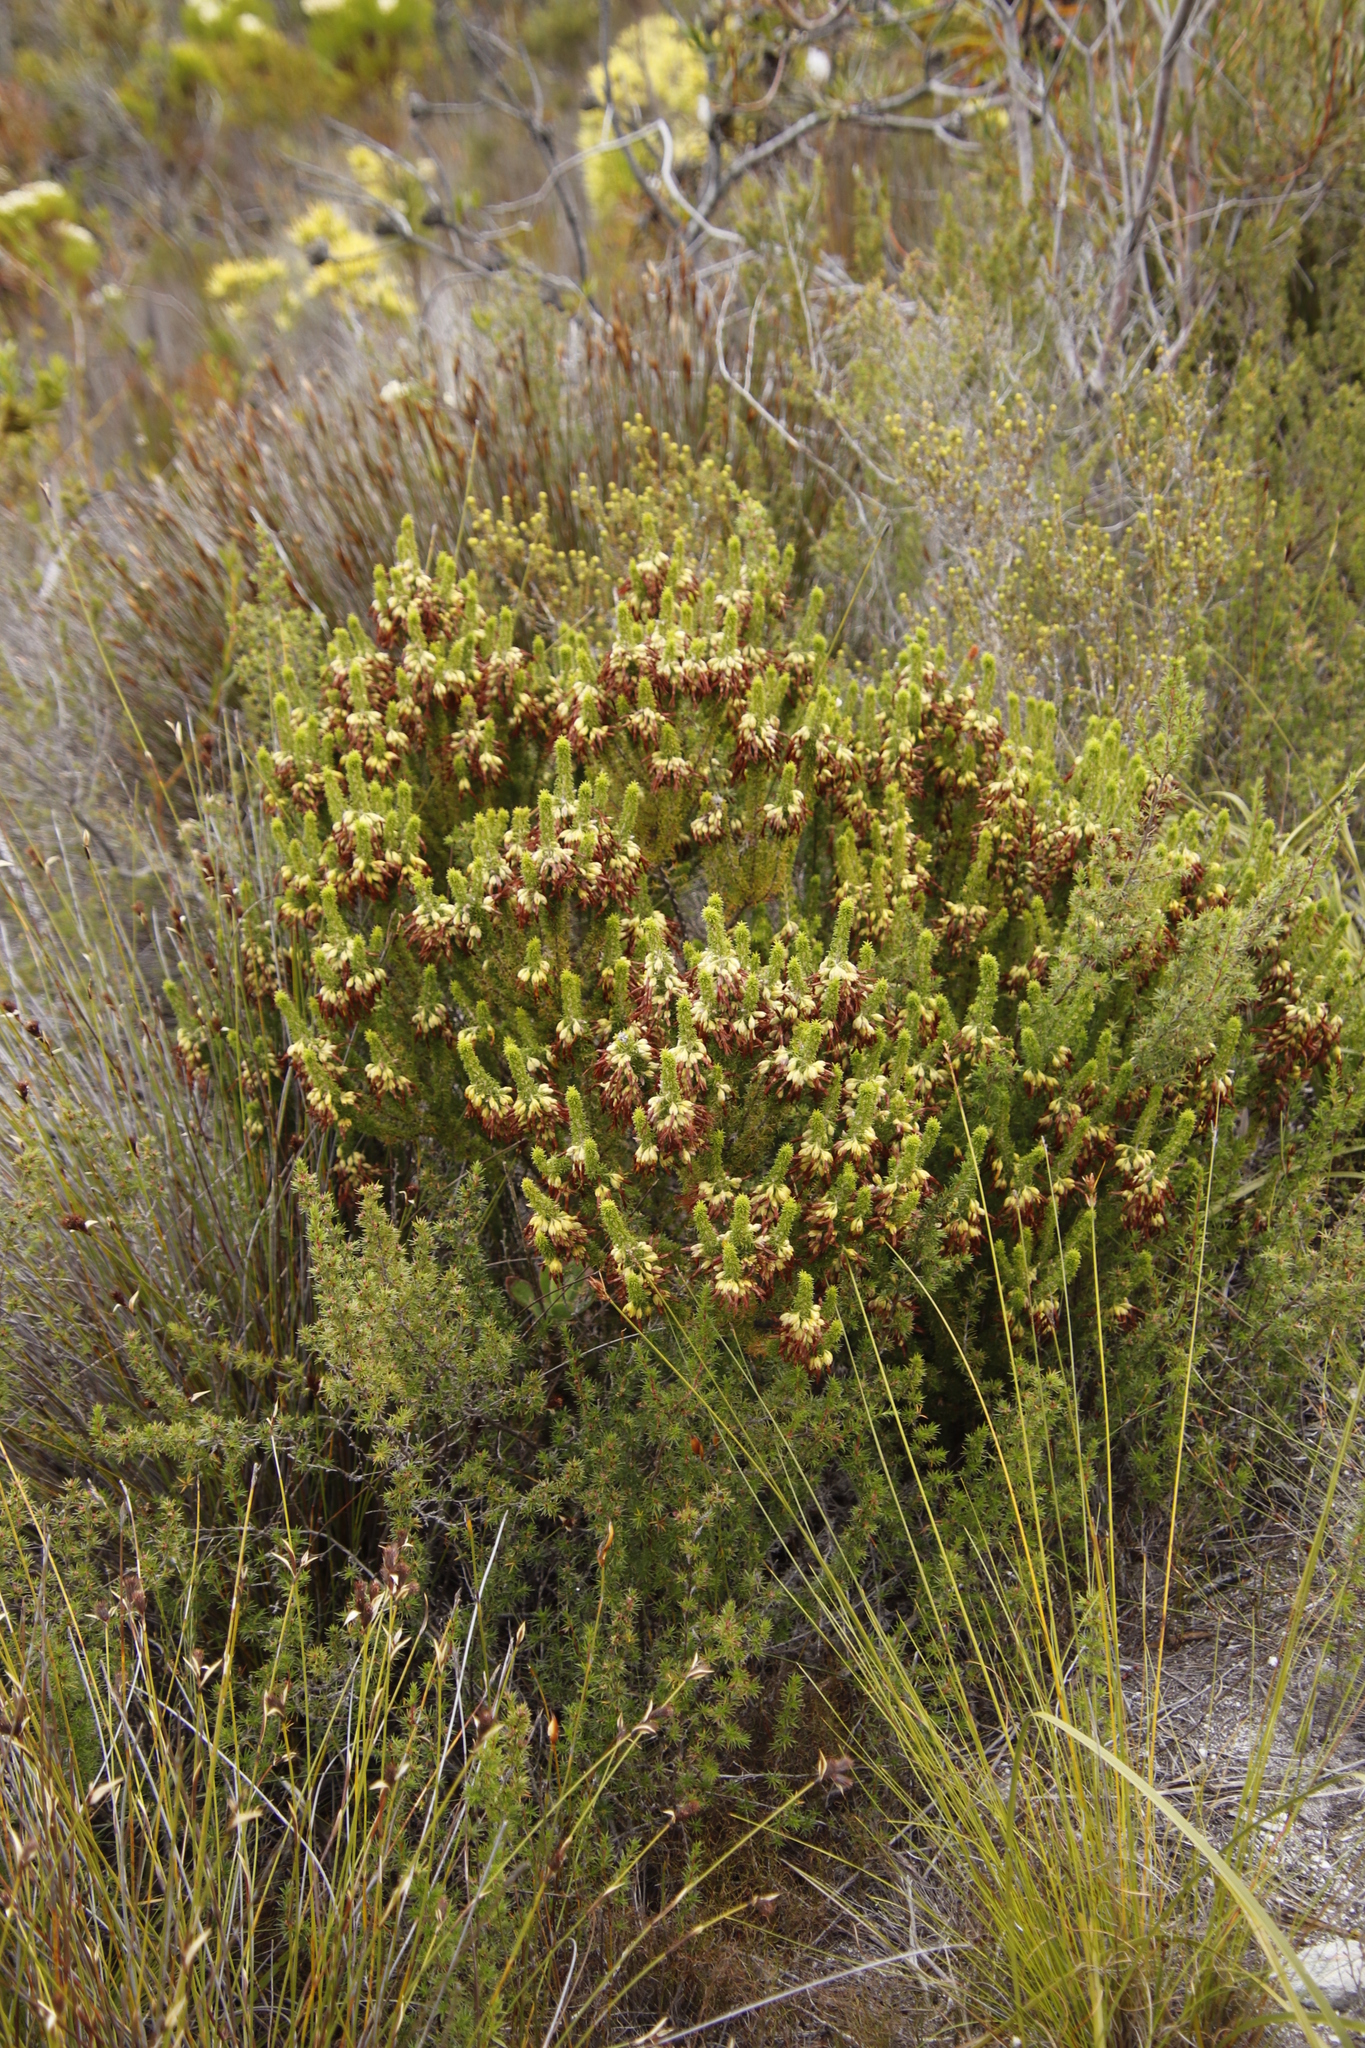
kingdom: Plantae
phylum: Tracheophyta
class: Magnoliopsida
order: Ericales
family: Ericaceae
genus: Erica
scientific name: Erica coccinea
